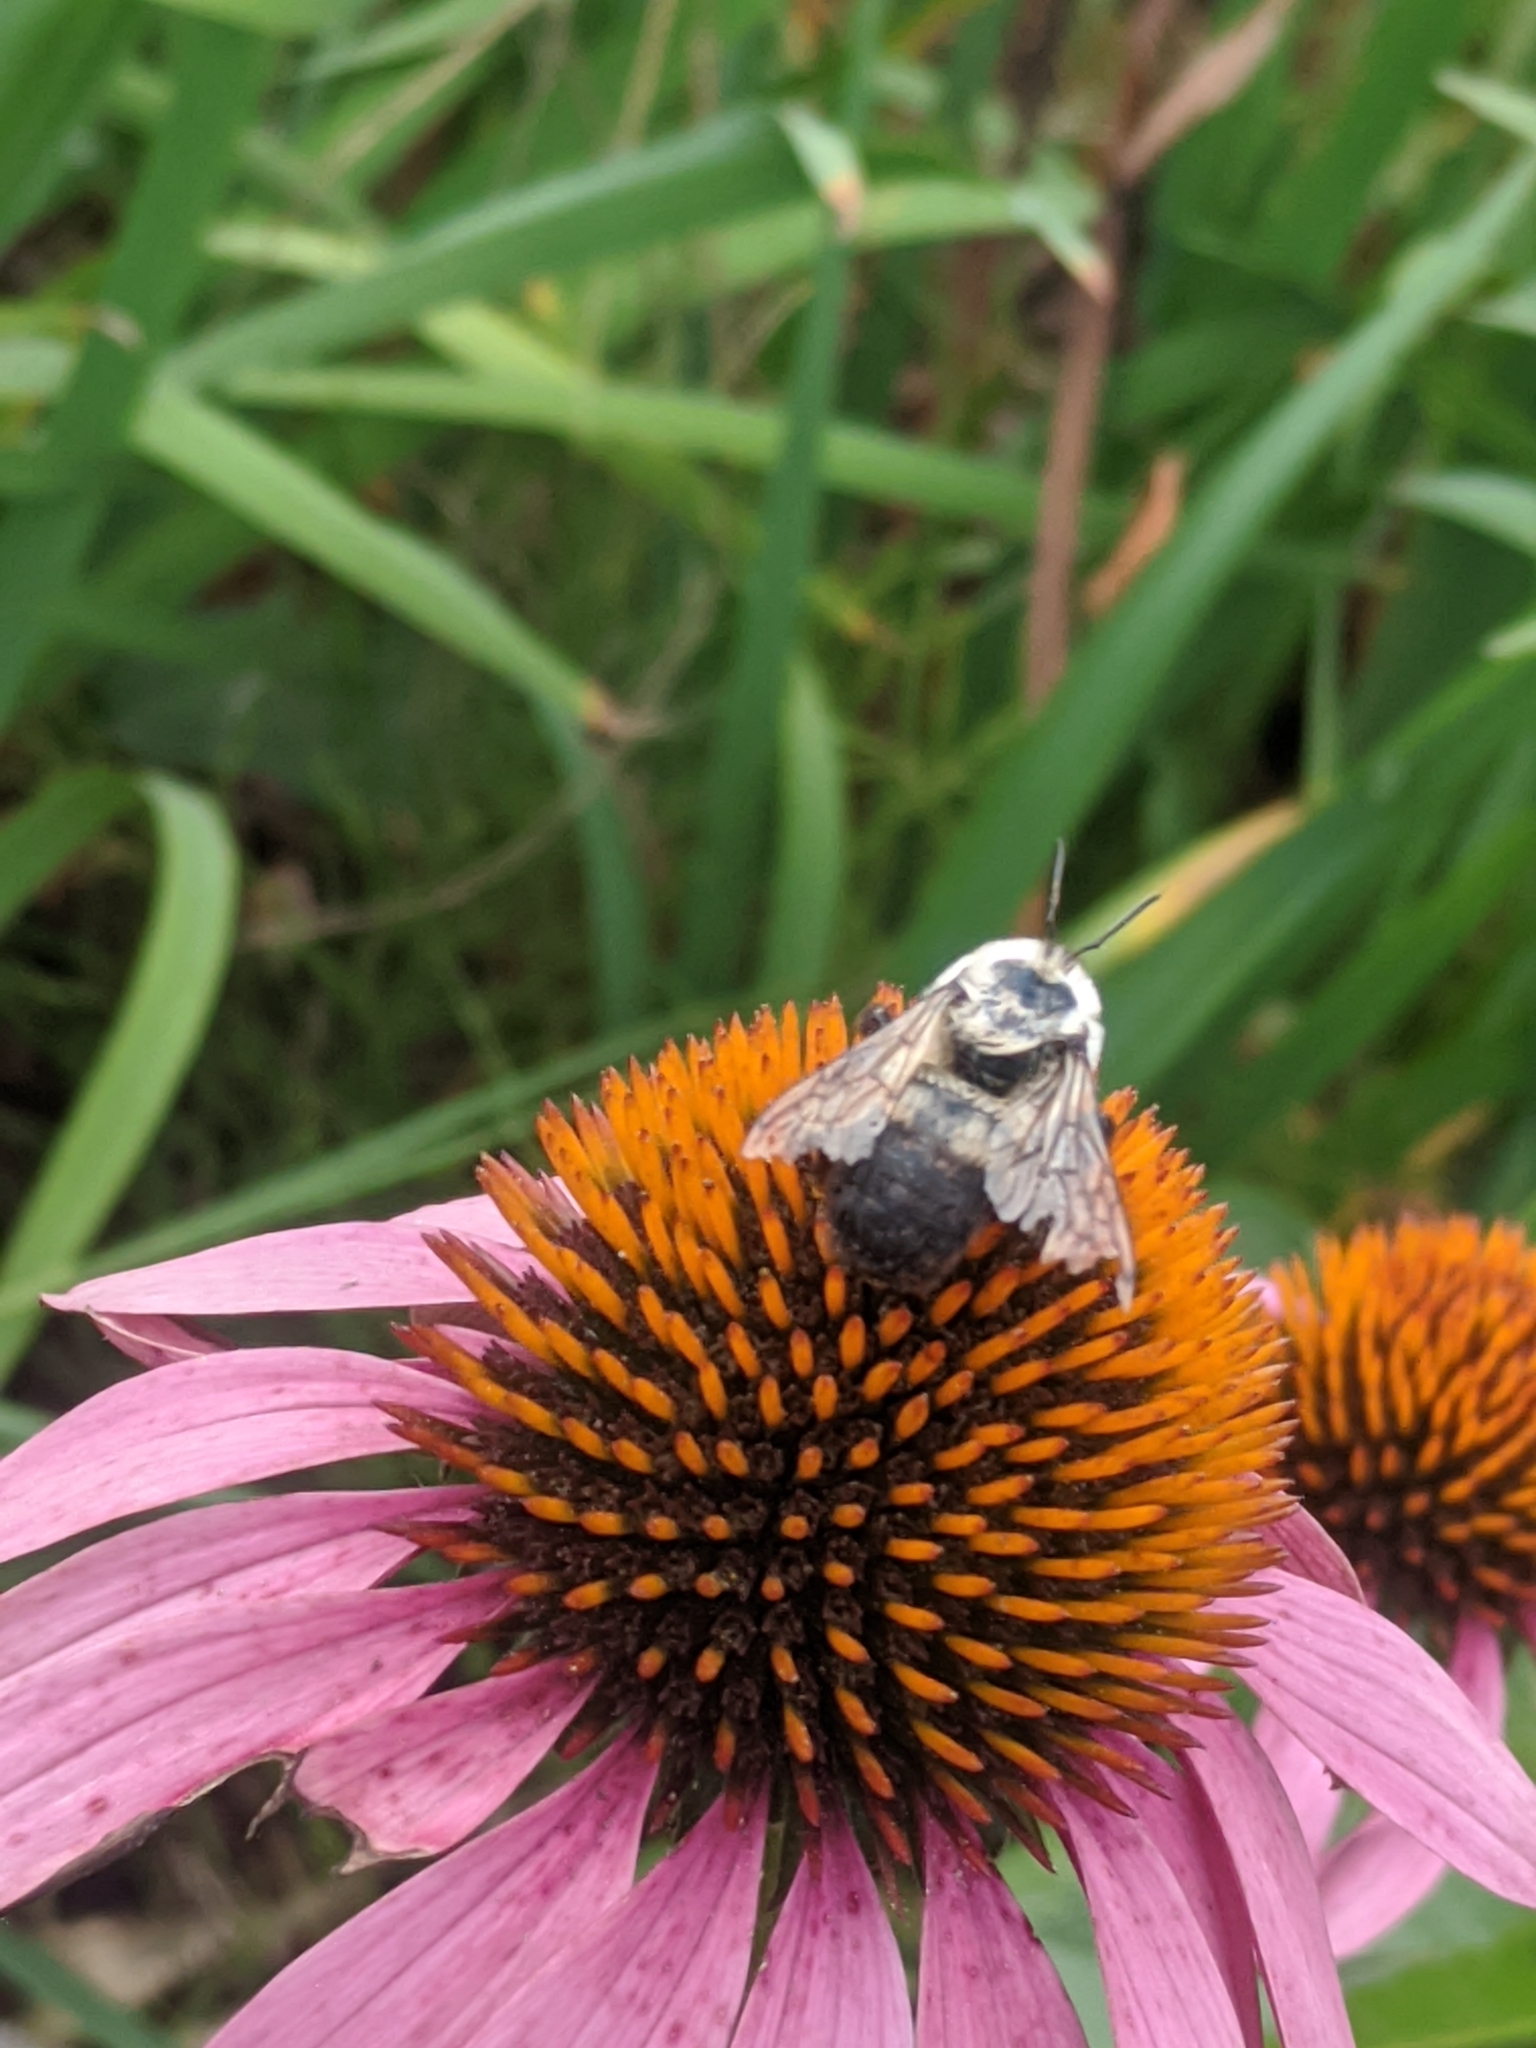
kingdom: Animalia
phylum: Arthropoda
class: Insecta
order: Hymenoptera
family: Apidae
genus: Bombus
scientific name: Bombus griseocollis
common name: Brown-belted bumble bee
